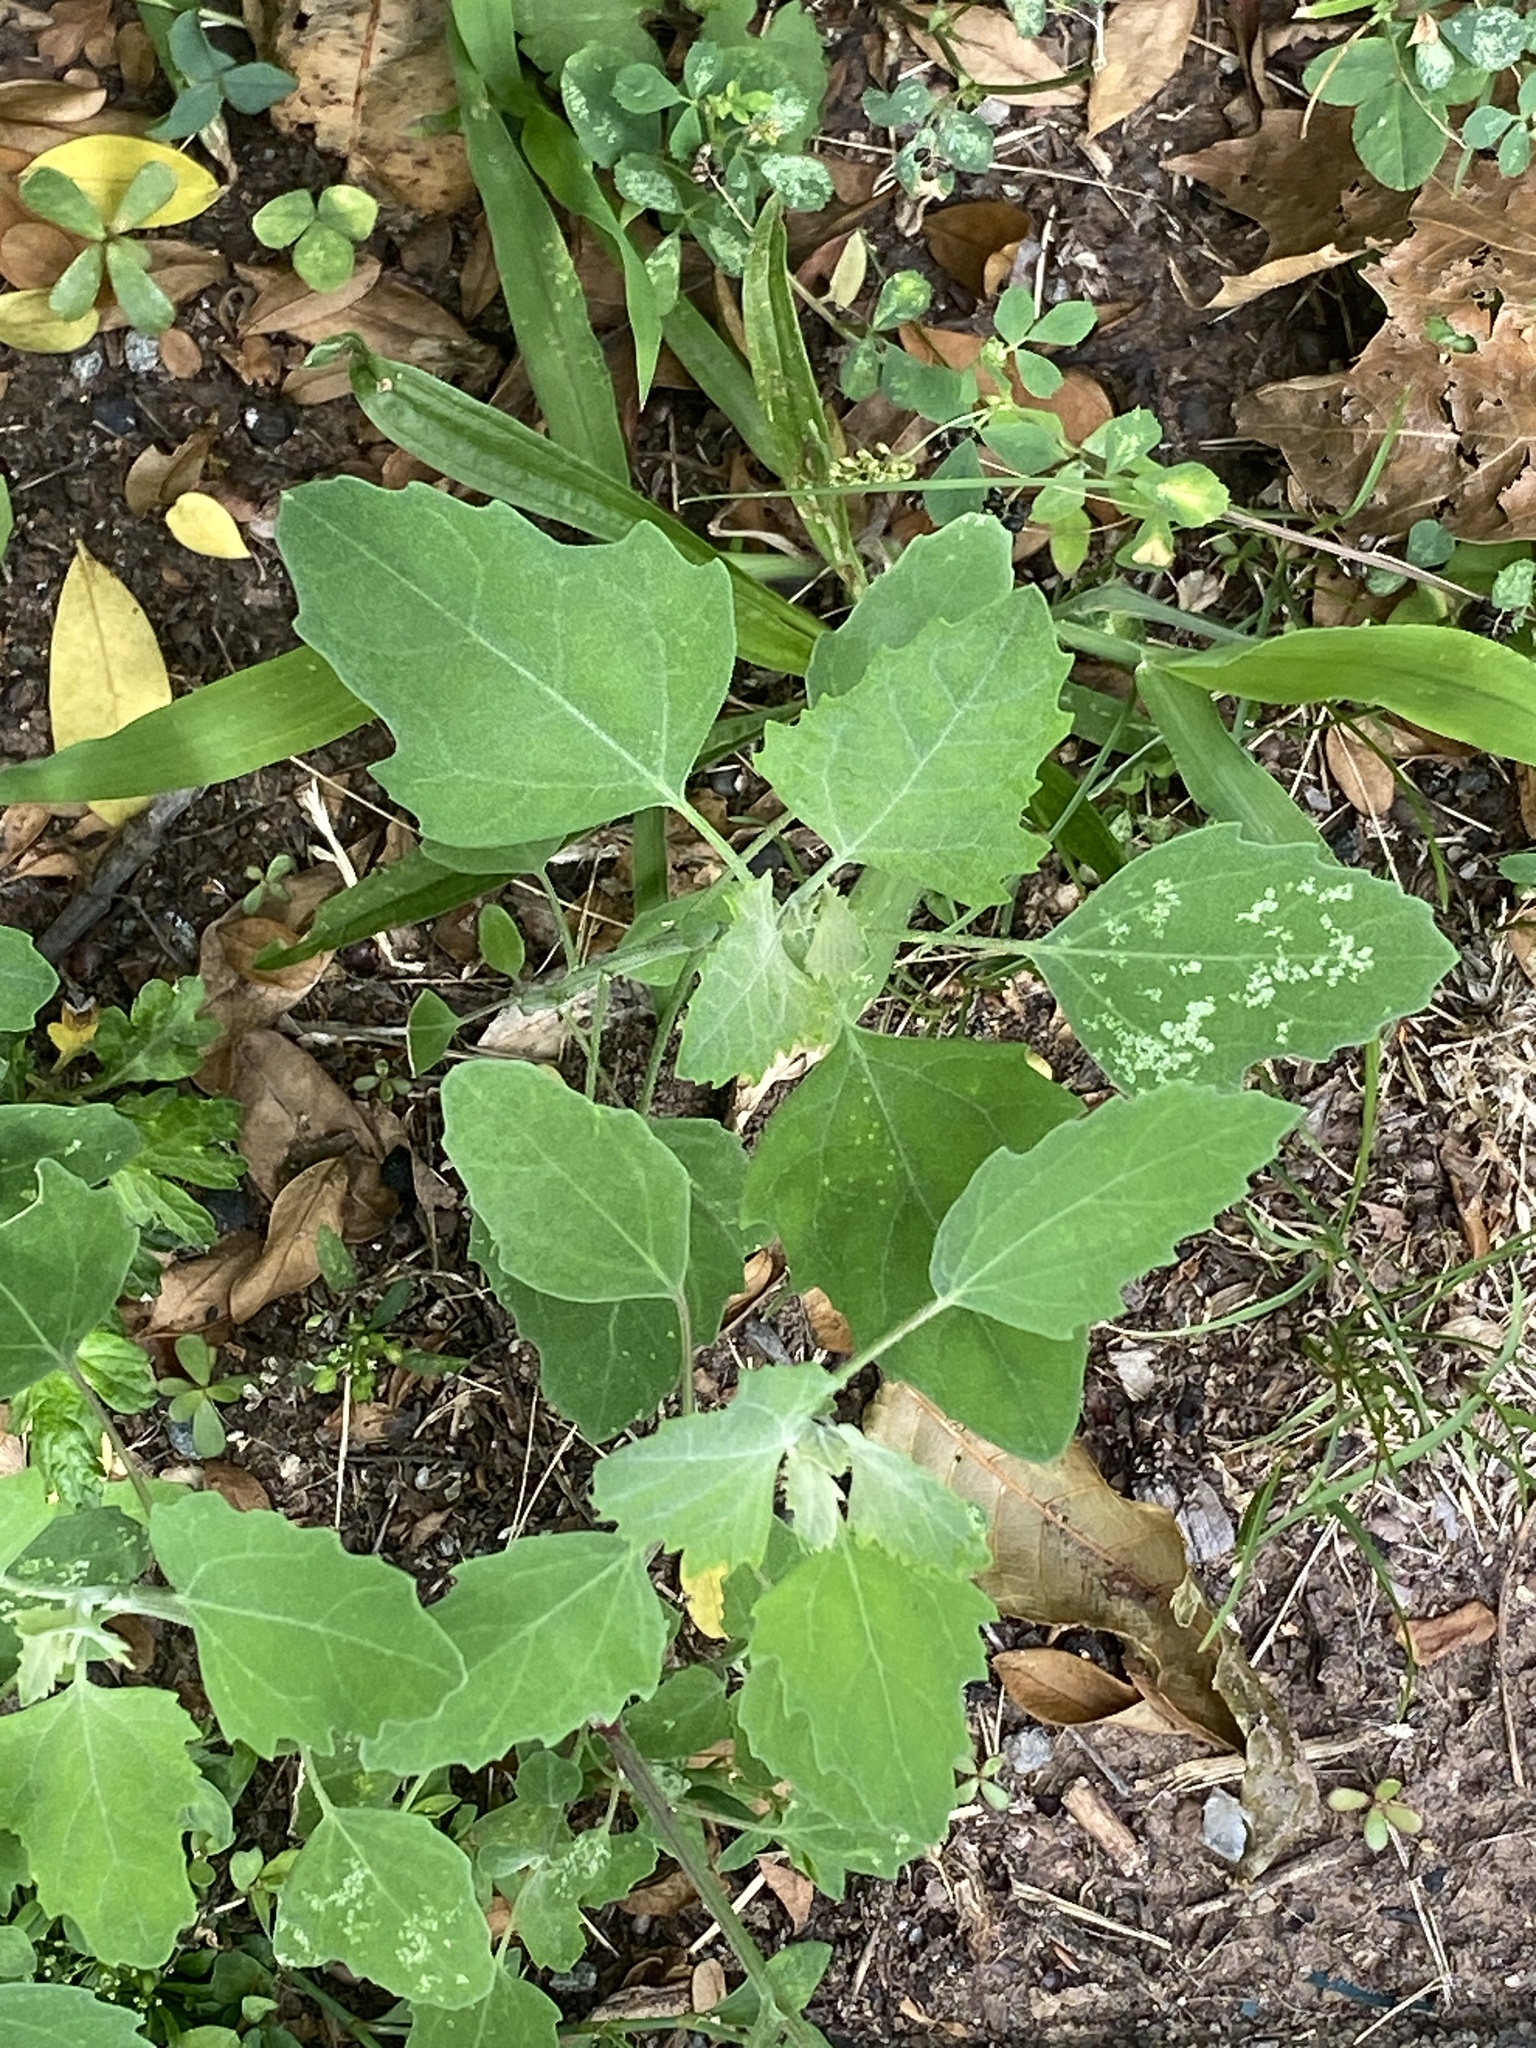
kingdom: Plantae
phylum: Tracheophyta
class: Magnoliopsida
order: Caryophyllales
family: Amaranthaceae
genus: Chenopodium
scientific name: Chenopodium album
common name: Fat-hen
